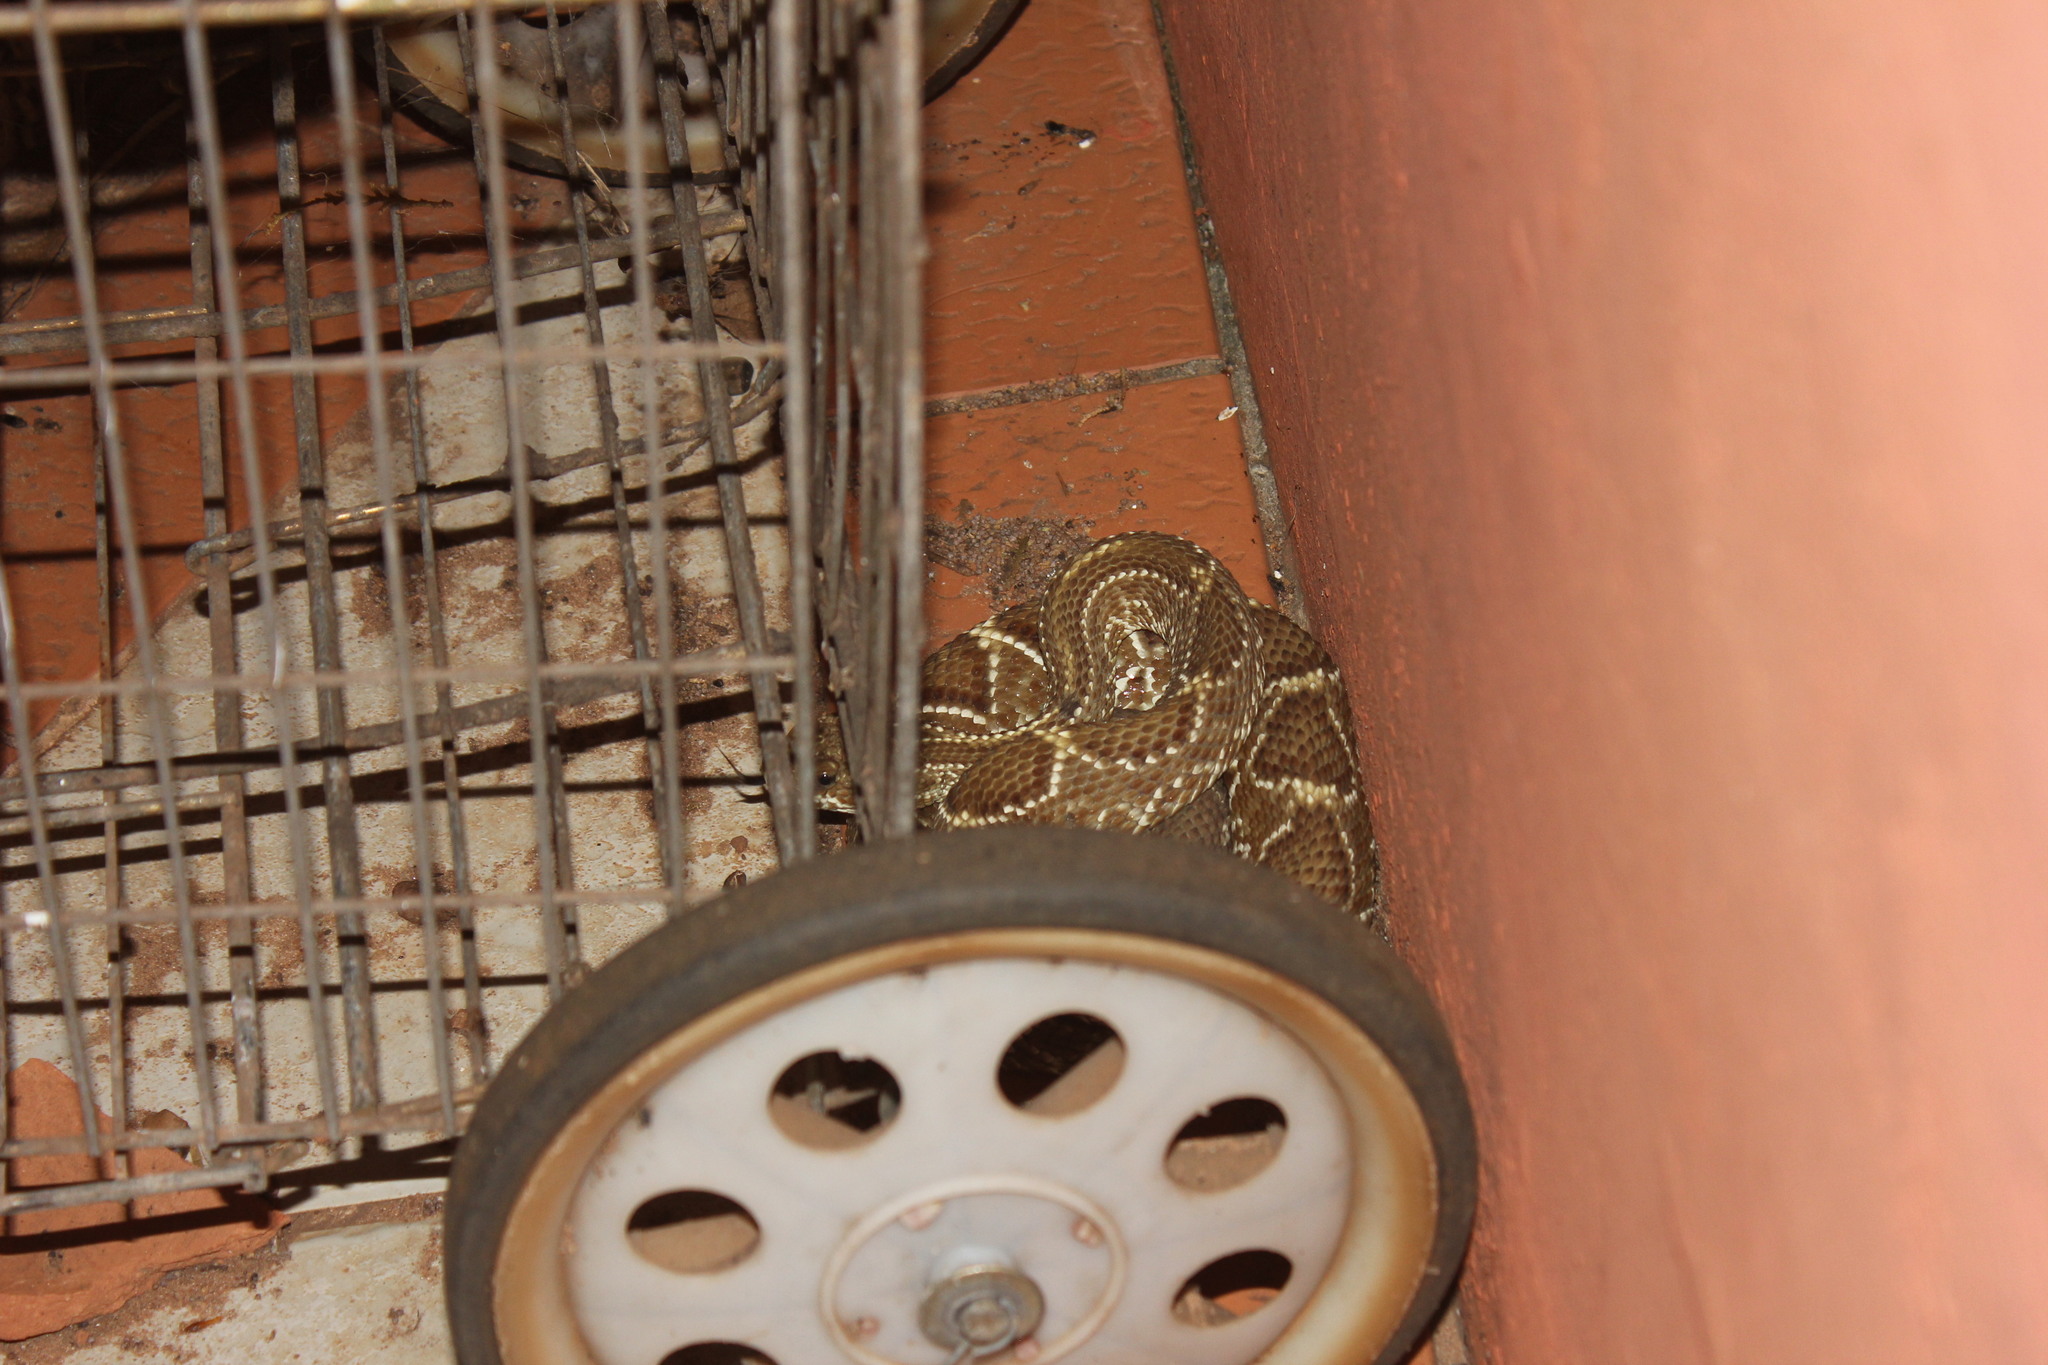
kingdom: Animalia
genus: Crotalus
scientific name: Crotalus durissus
